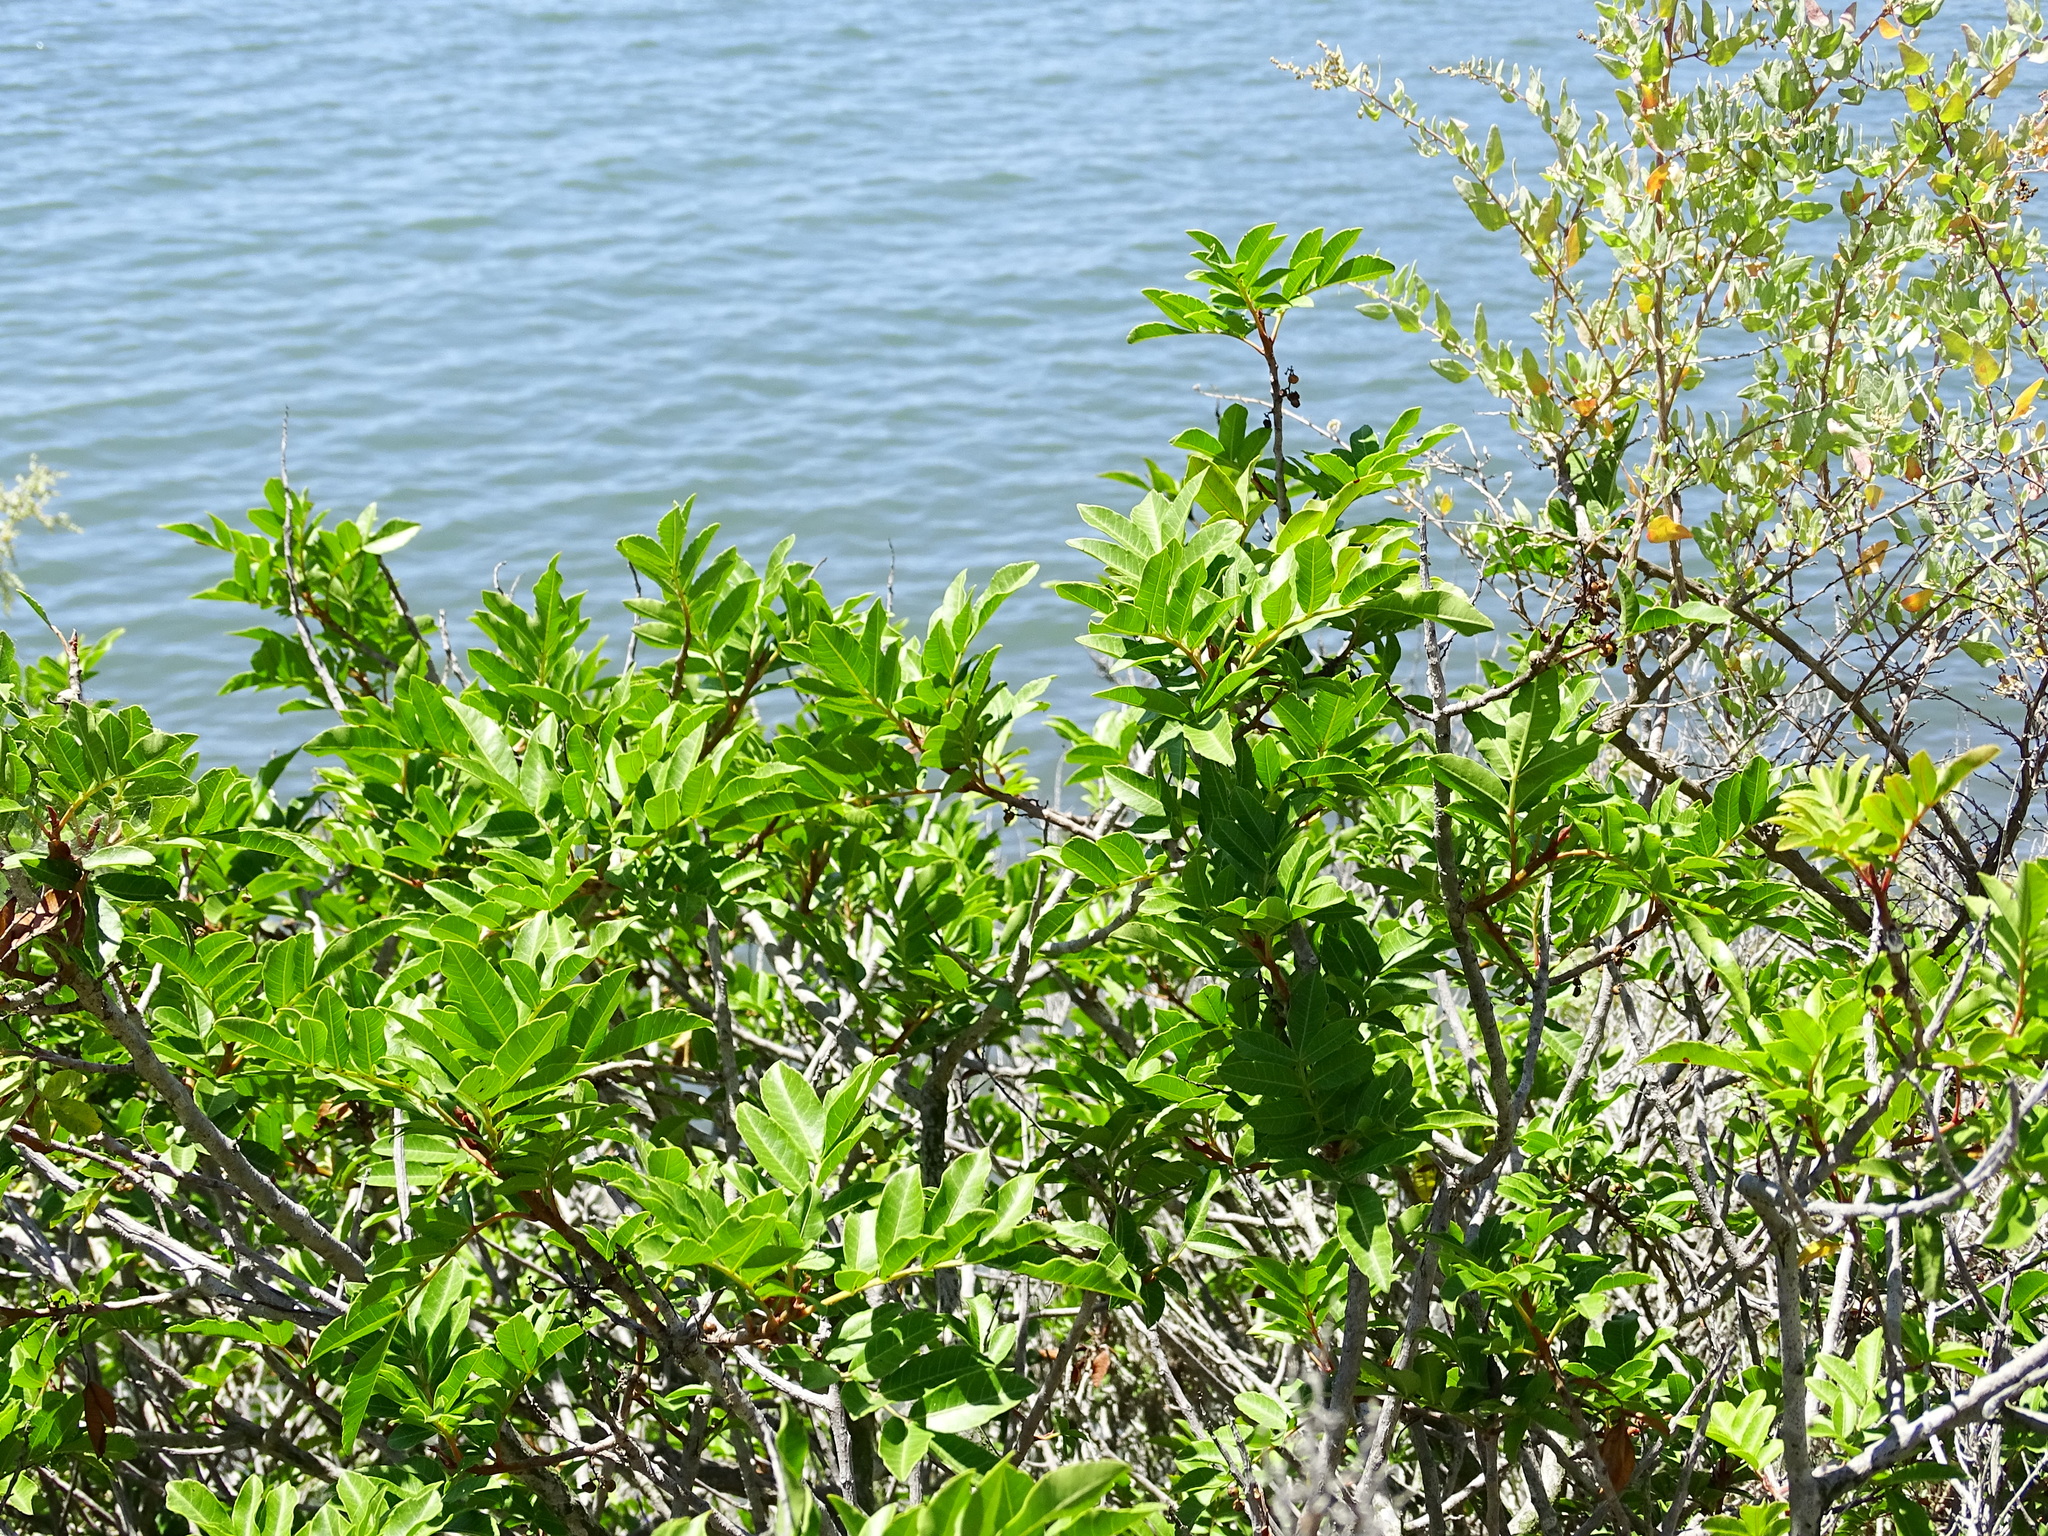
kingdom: Plantae
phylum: Tracheophyta
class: Magnoliopsida
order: Sapindales
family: Anacardiaceae
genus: Schinus
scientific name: Schinus terebinthifolia
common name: Brazilian peppertree
